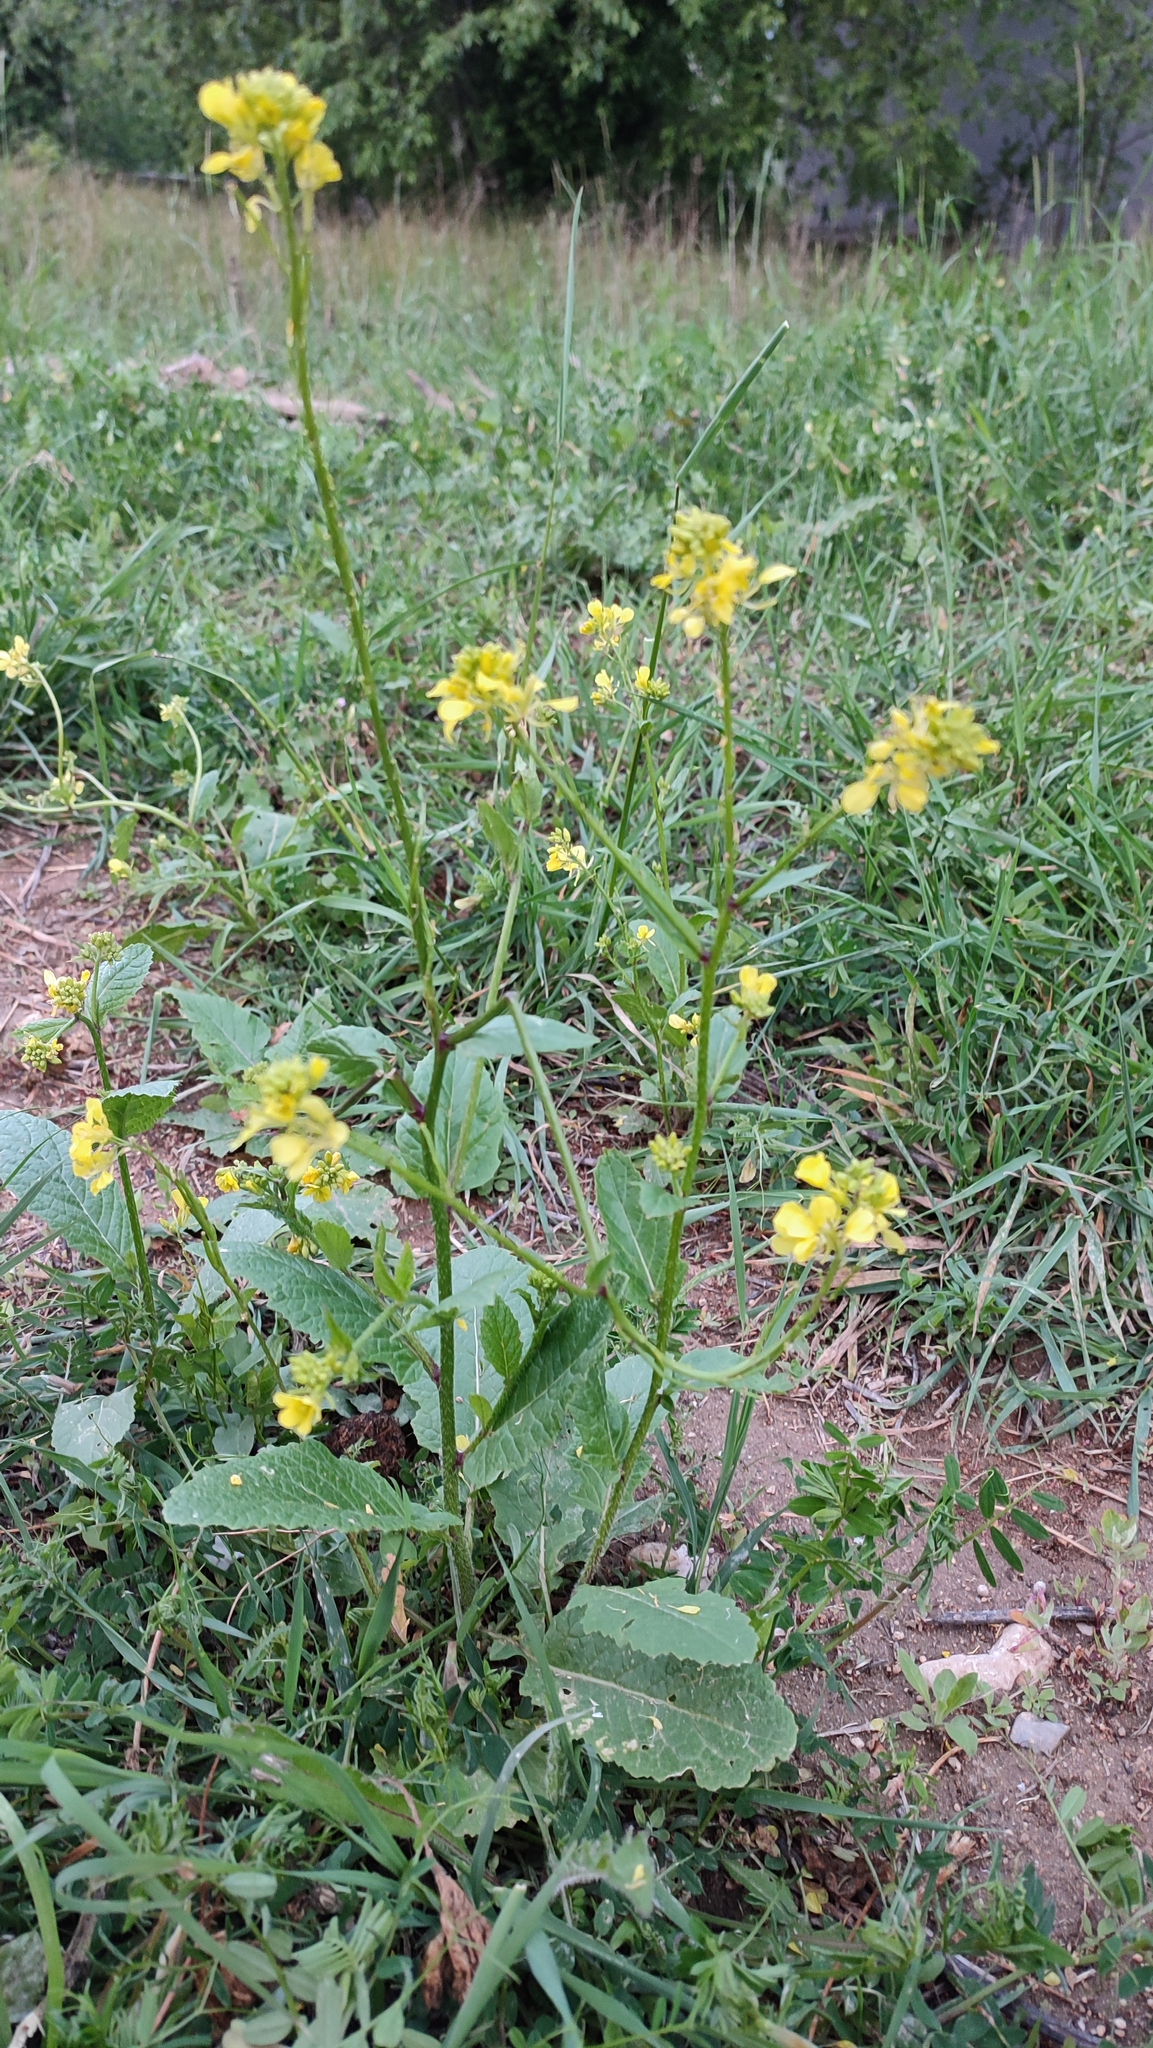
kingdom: Plantae
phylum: Tracheophyta
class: Magnoliopsida
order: Brassicales
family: Brassicaceae
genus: Sinapis
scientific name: Sinapis arvensis
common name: Charlock
